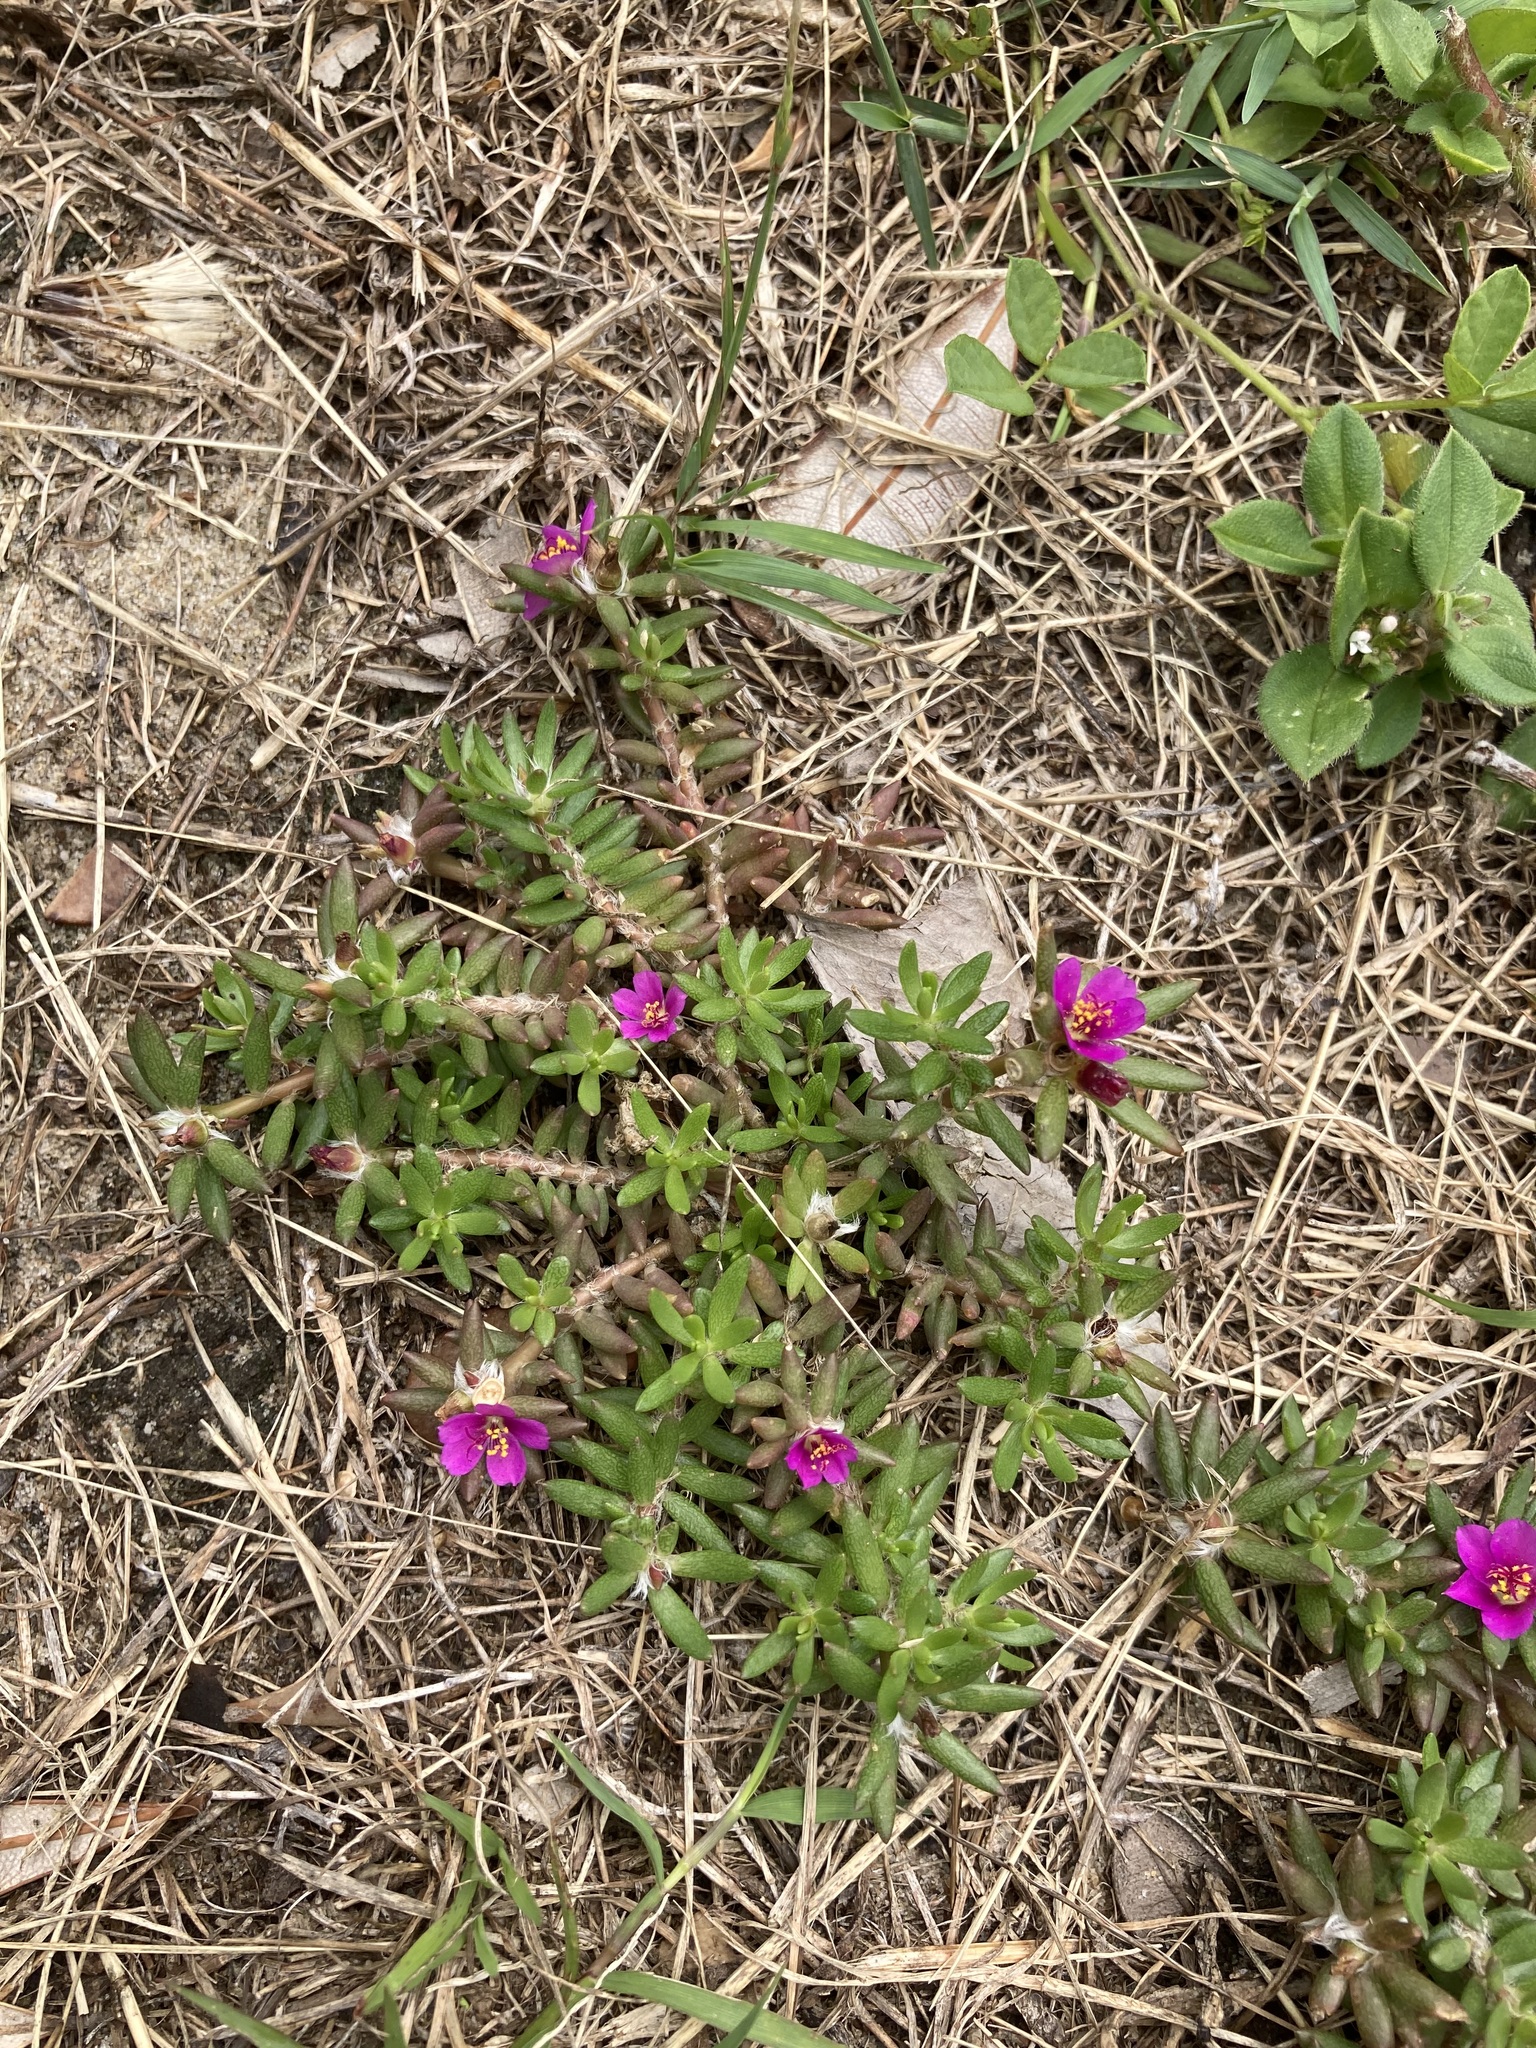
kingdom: Plantae
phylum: Tracheophyta
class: Magnoliopsida
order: Caryophyllales
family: Portulacaceae
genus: Portulaca
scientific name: Portulaca pilosa
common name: Kiss me quick
